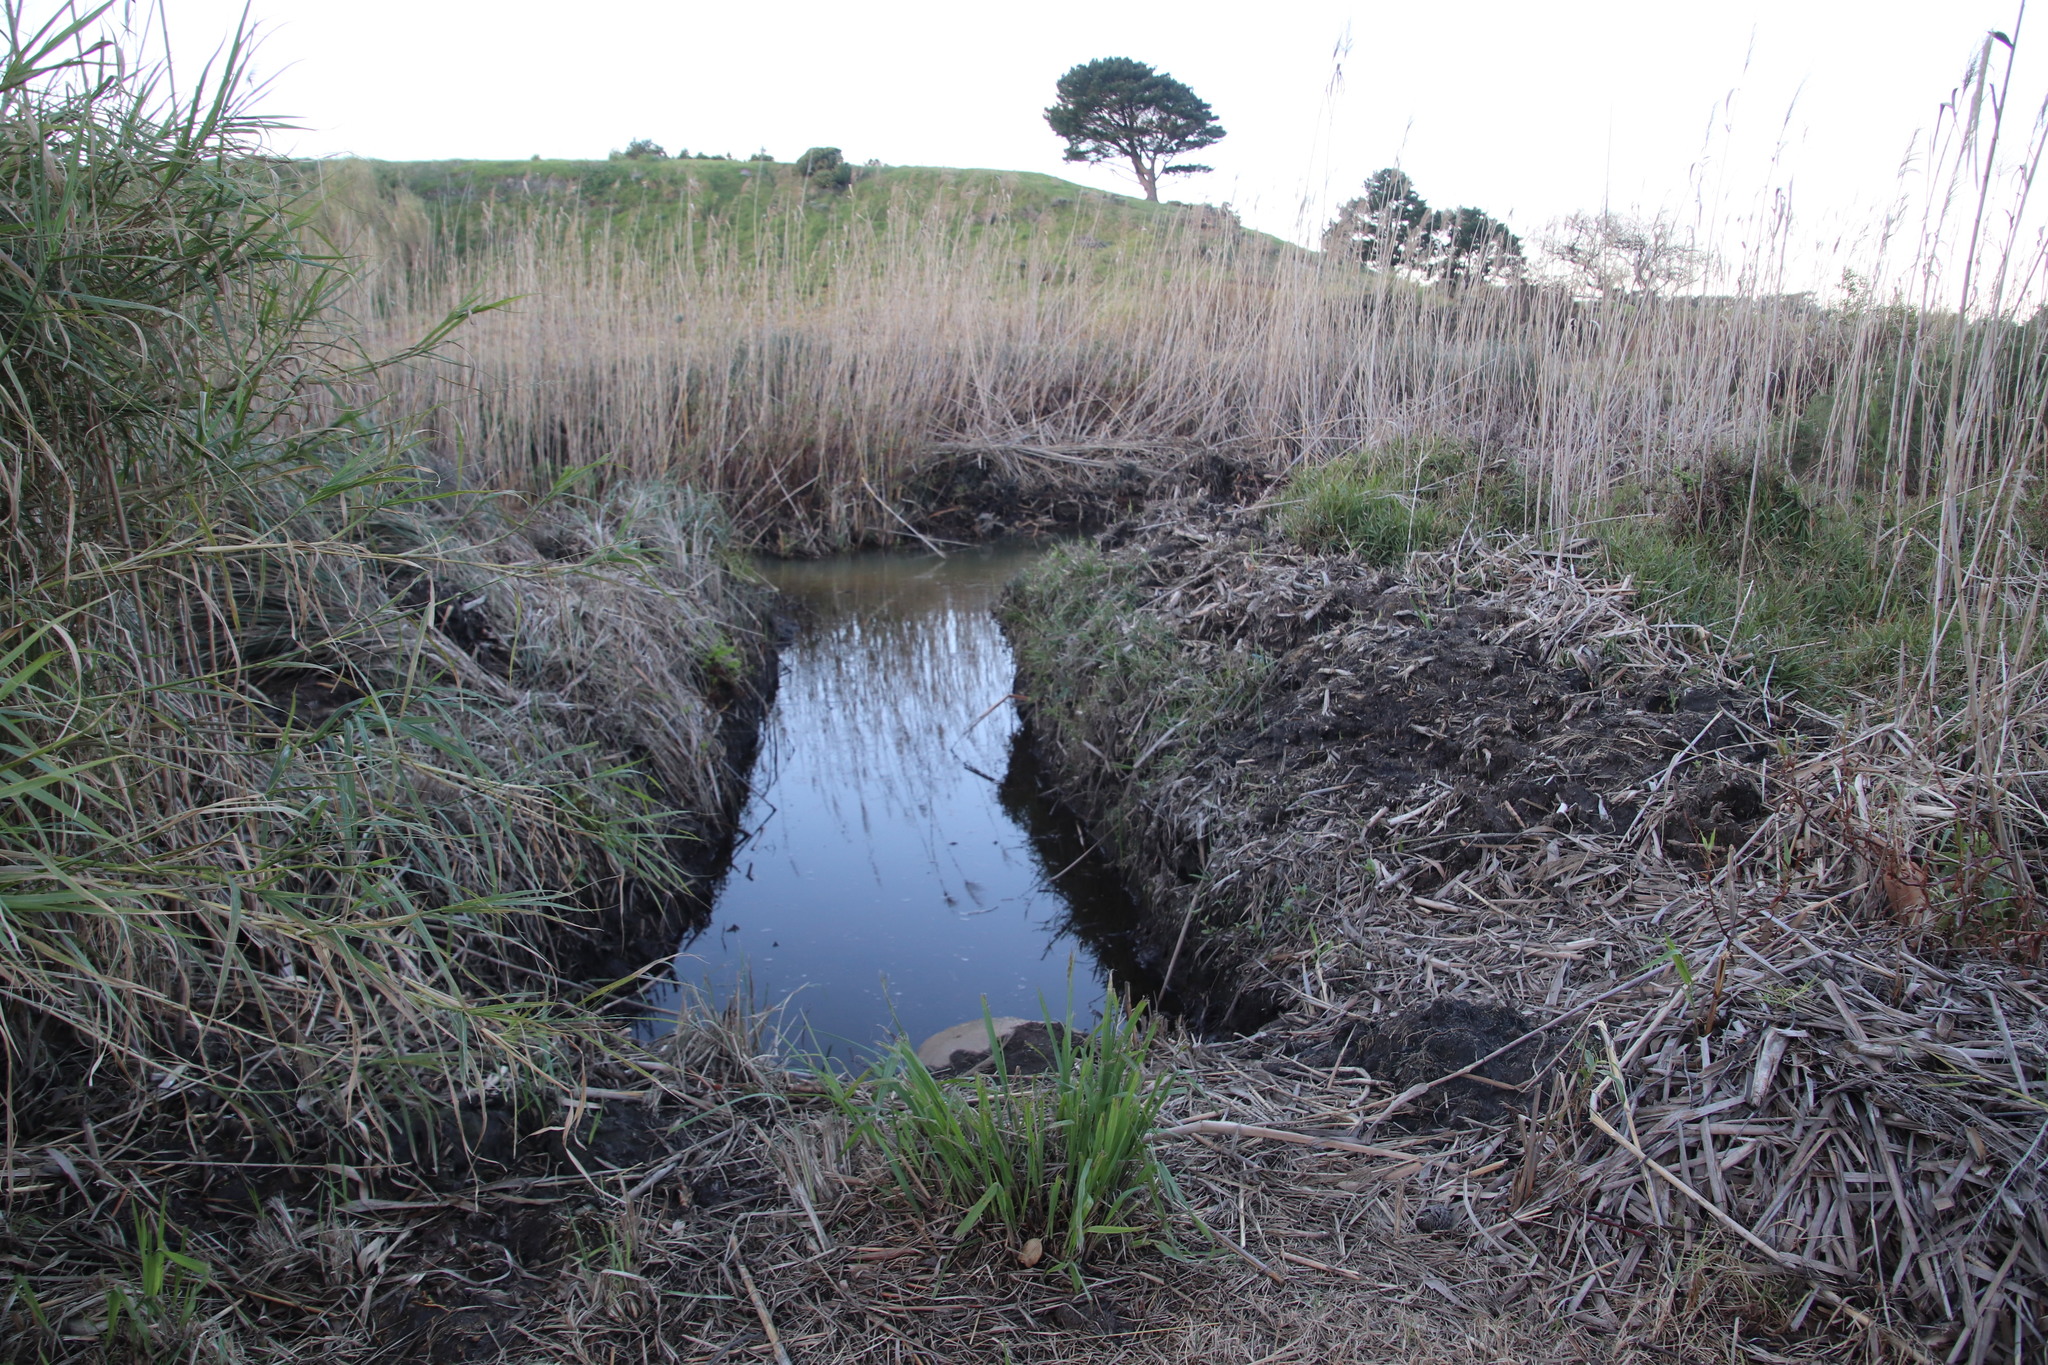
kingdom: Plantae
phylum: Tracheophyta
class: Magnoliopsida
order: Fabales
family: Fabaceae
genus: Psoralea
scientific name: Psoralea fascicularis
